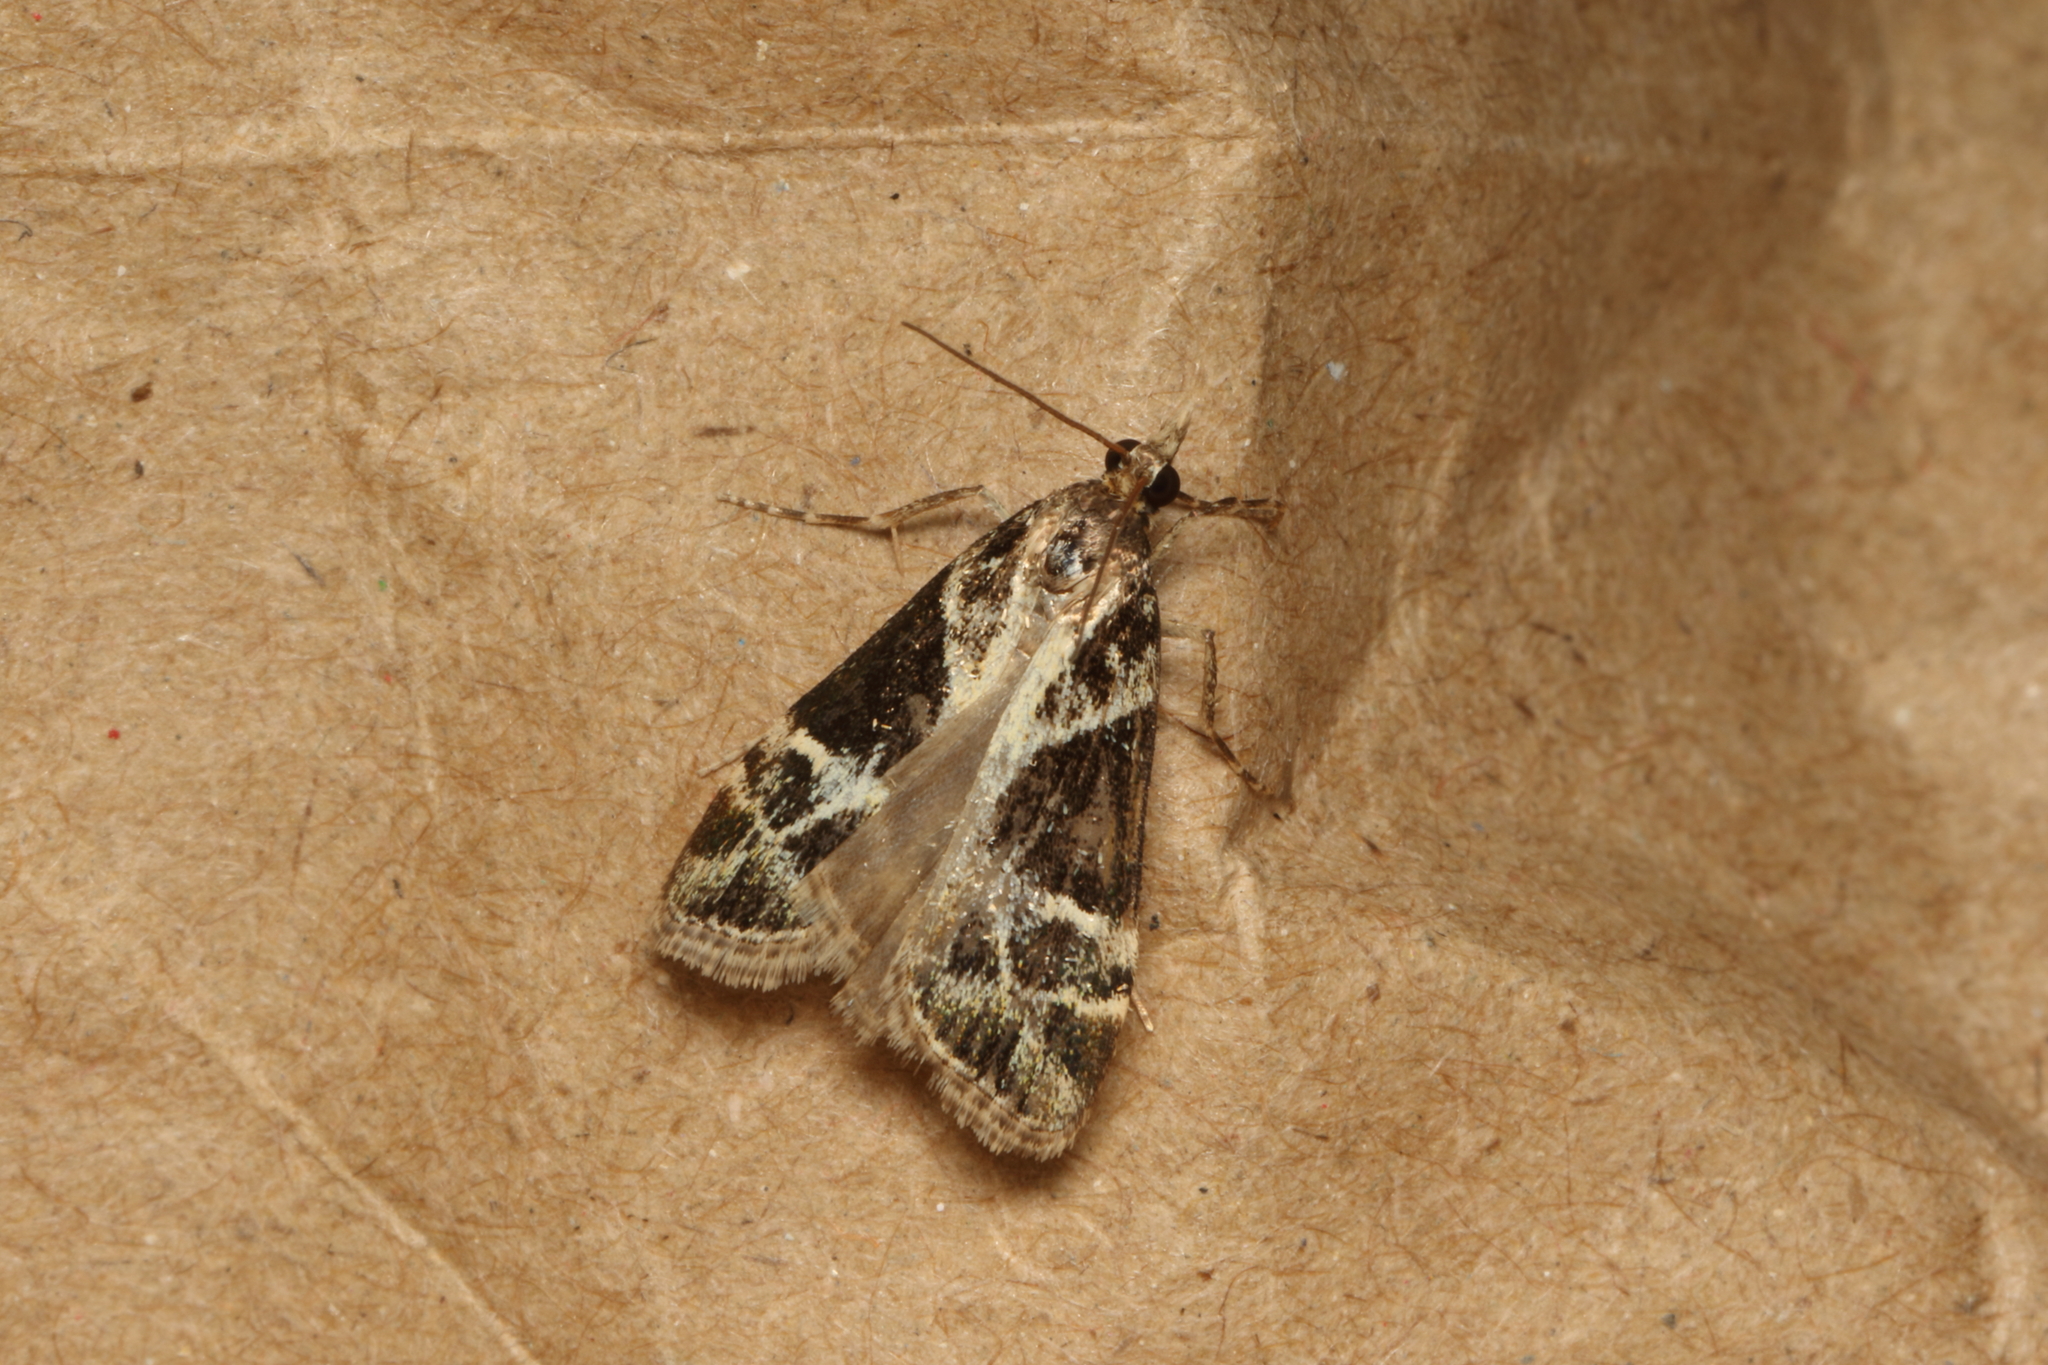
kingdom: Animalia
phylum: Arthropoda
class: Insecta
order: Lepidoptera
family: Crambidae
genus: Eudonia
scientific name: Eudonia melanaegis
